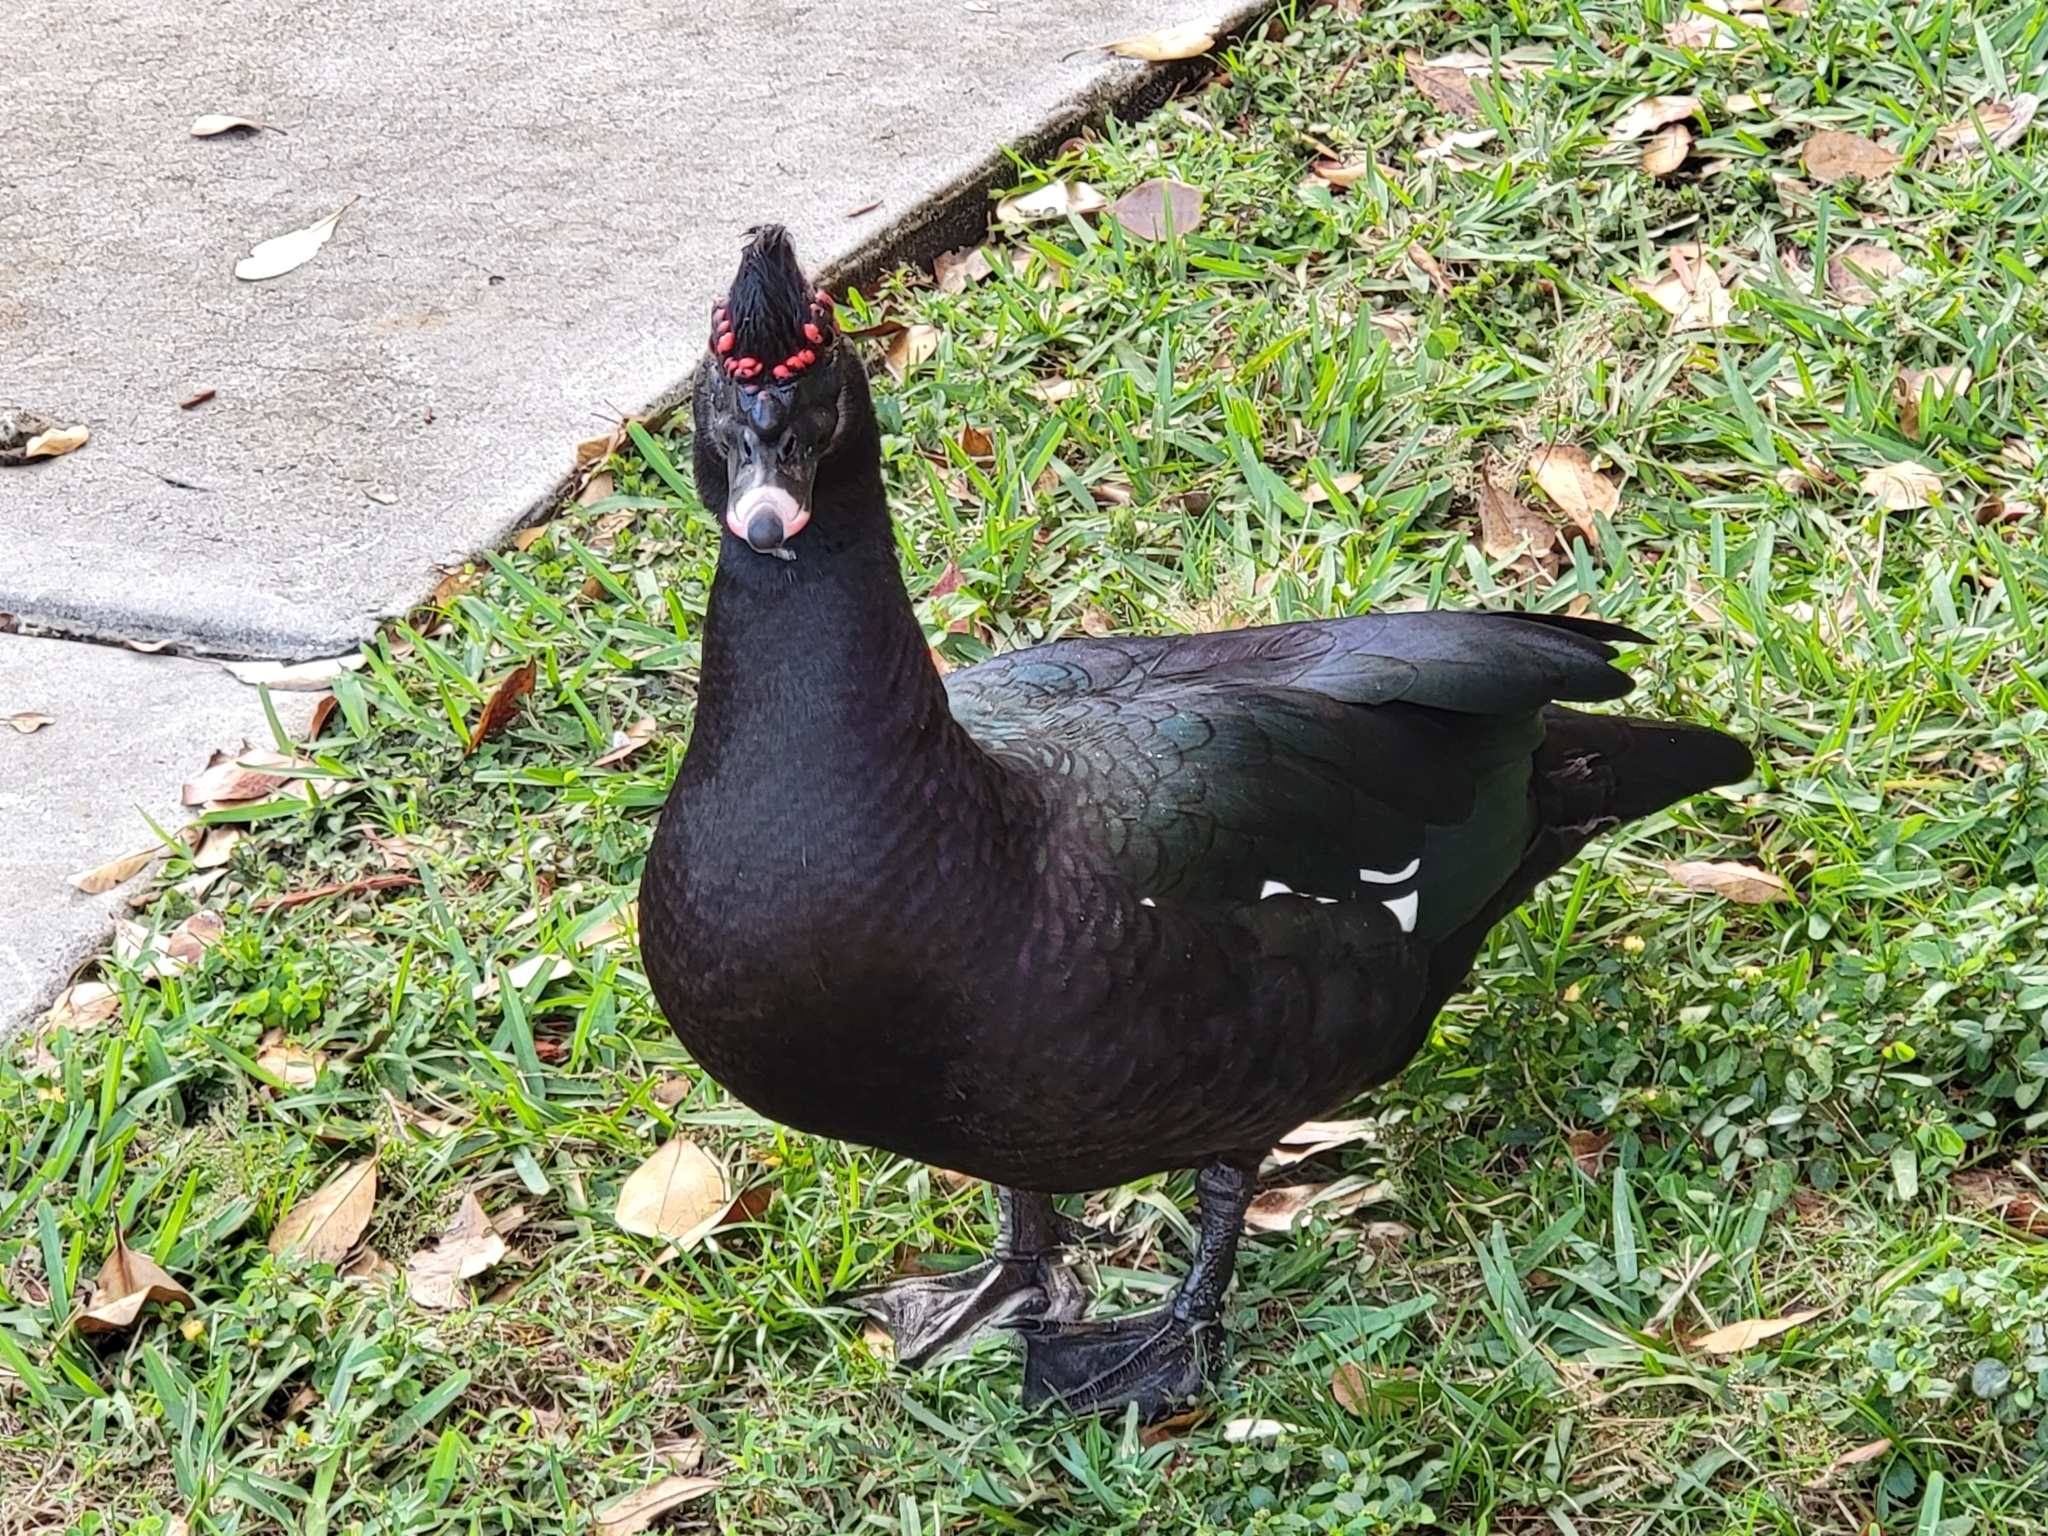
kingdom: Animalia
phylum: Chordata
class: Aves
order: Anseriformes
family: Anatidae
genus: Cairina
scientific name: Cairina moschata
